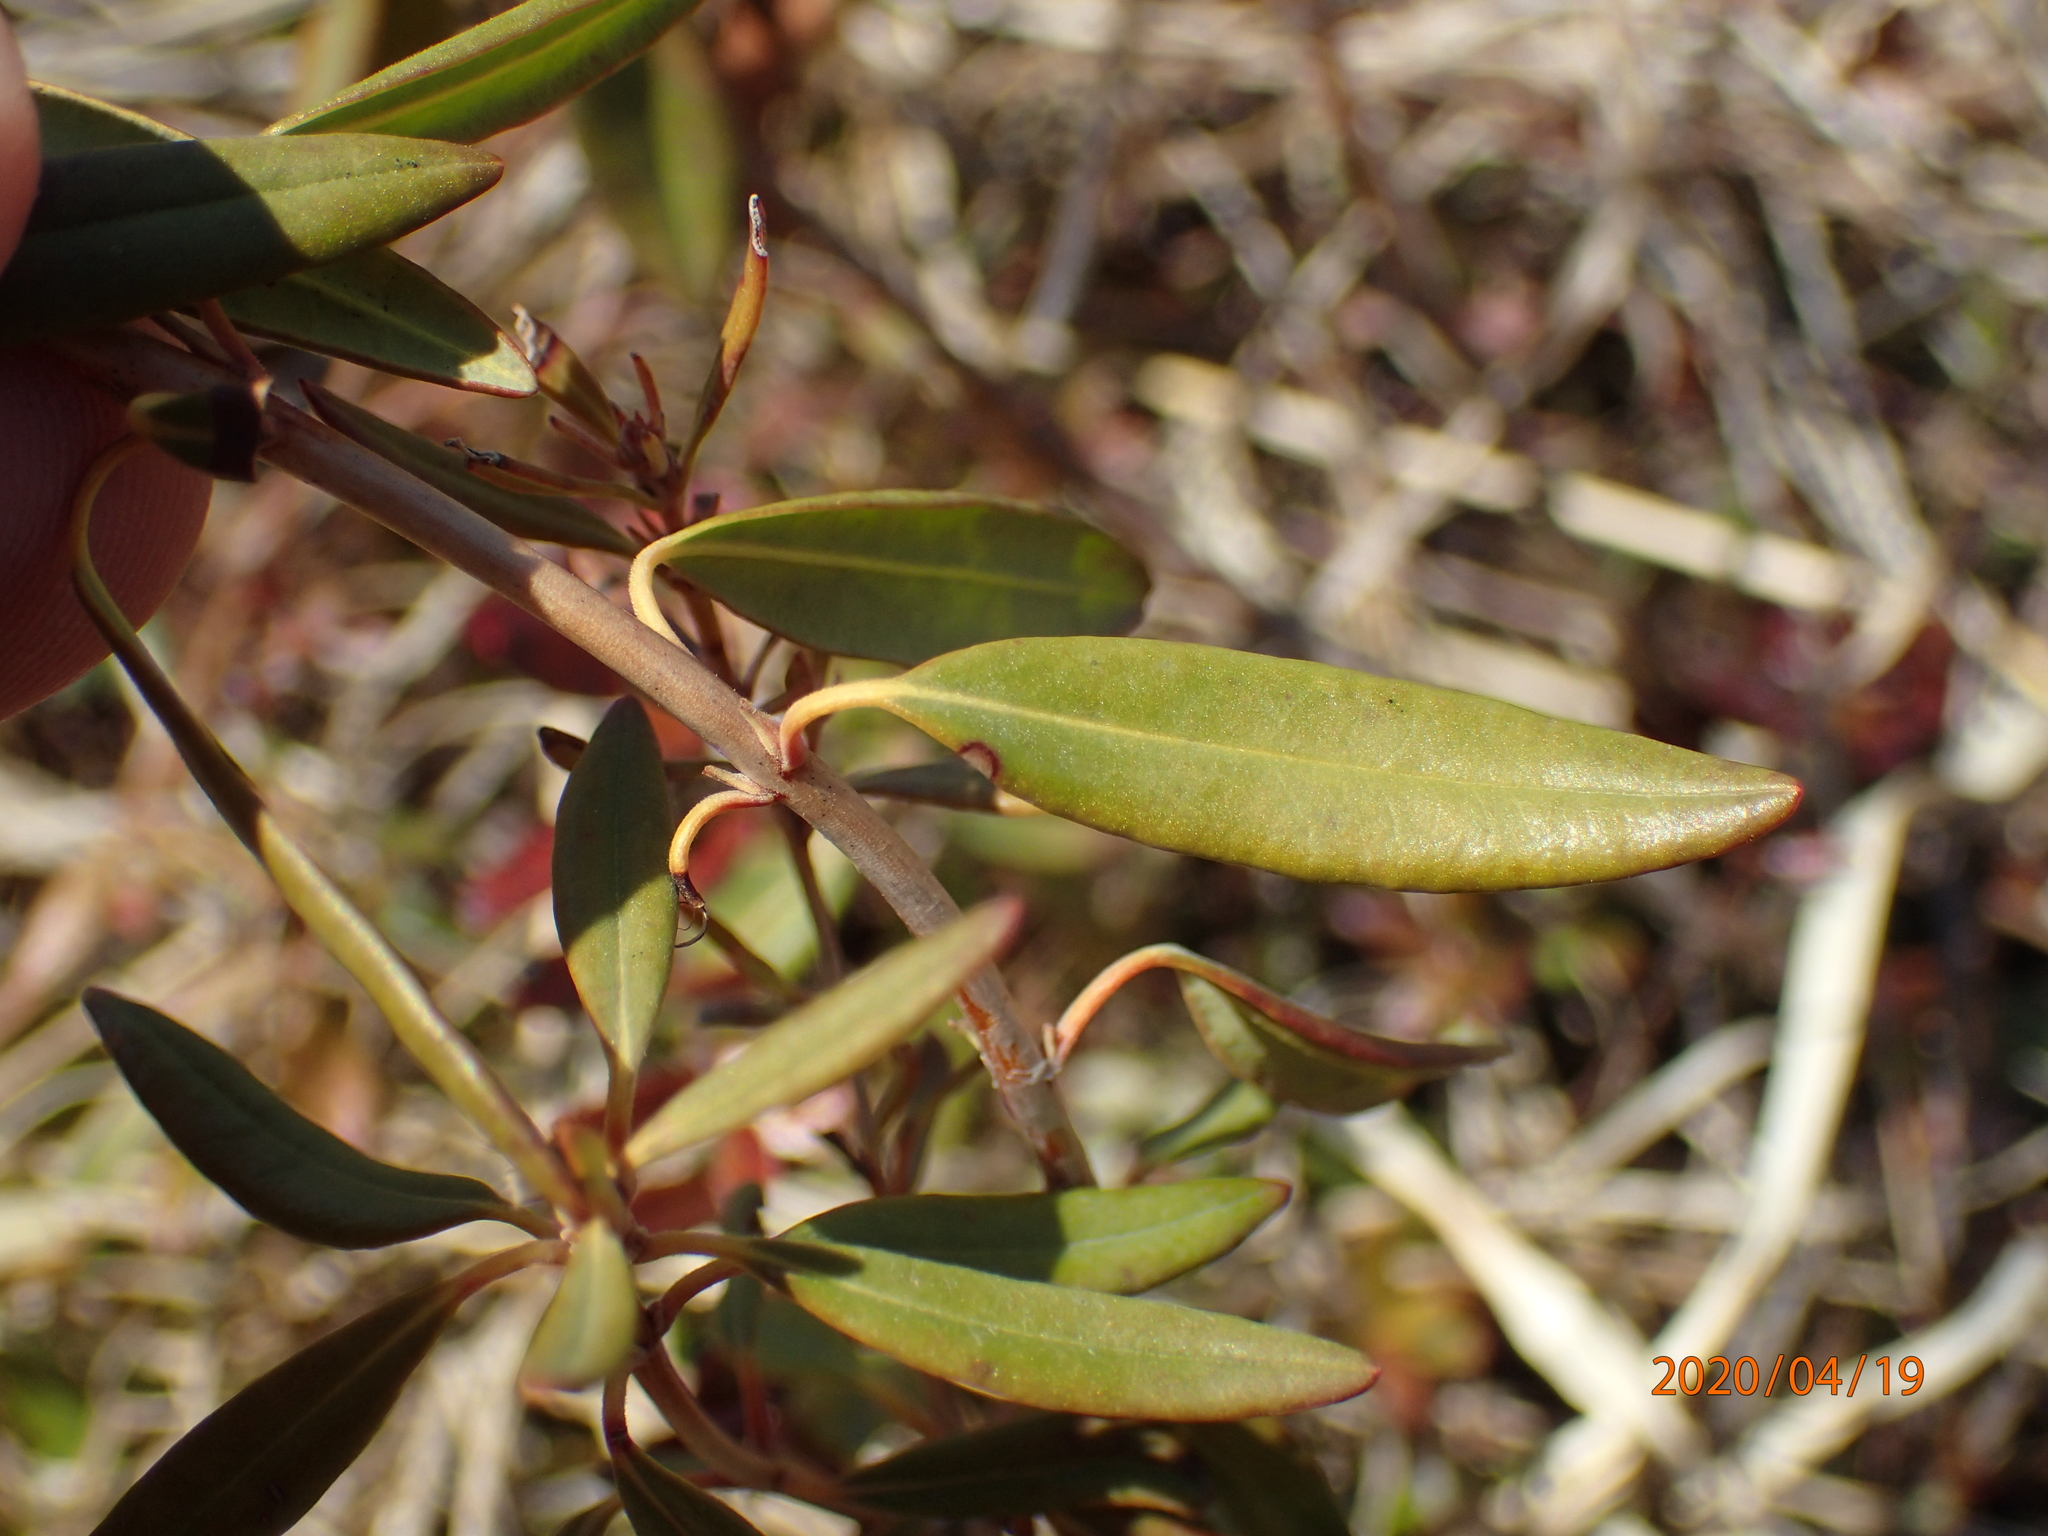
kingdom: Plantae
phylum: Tracheophyta
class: Magnoliopsida
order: Ericales
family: Ericaceae
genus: Kalmia
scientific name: Kalmia angustifolia
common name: Sheep-laurel
